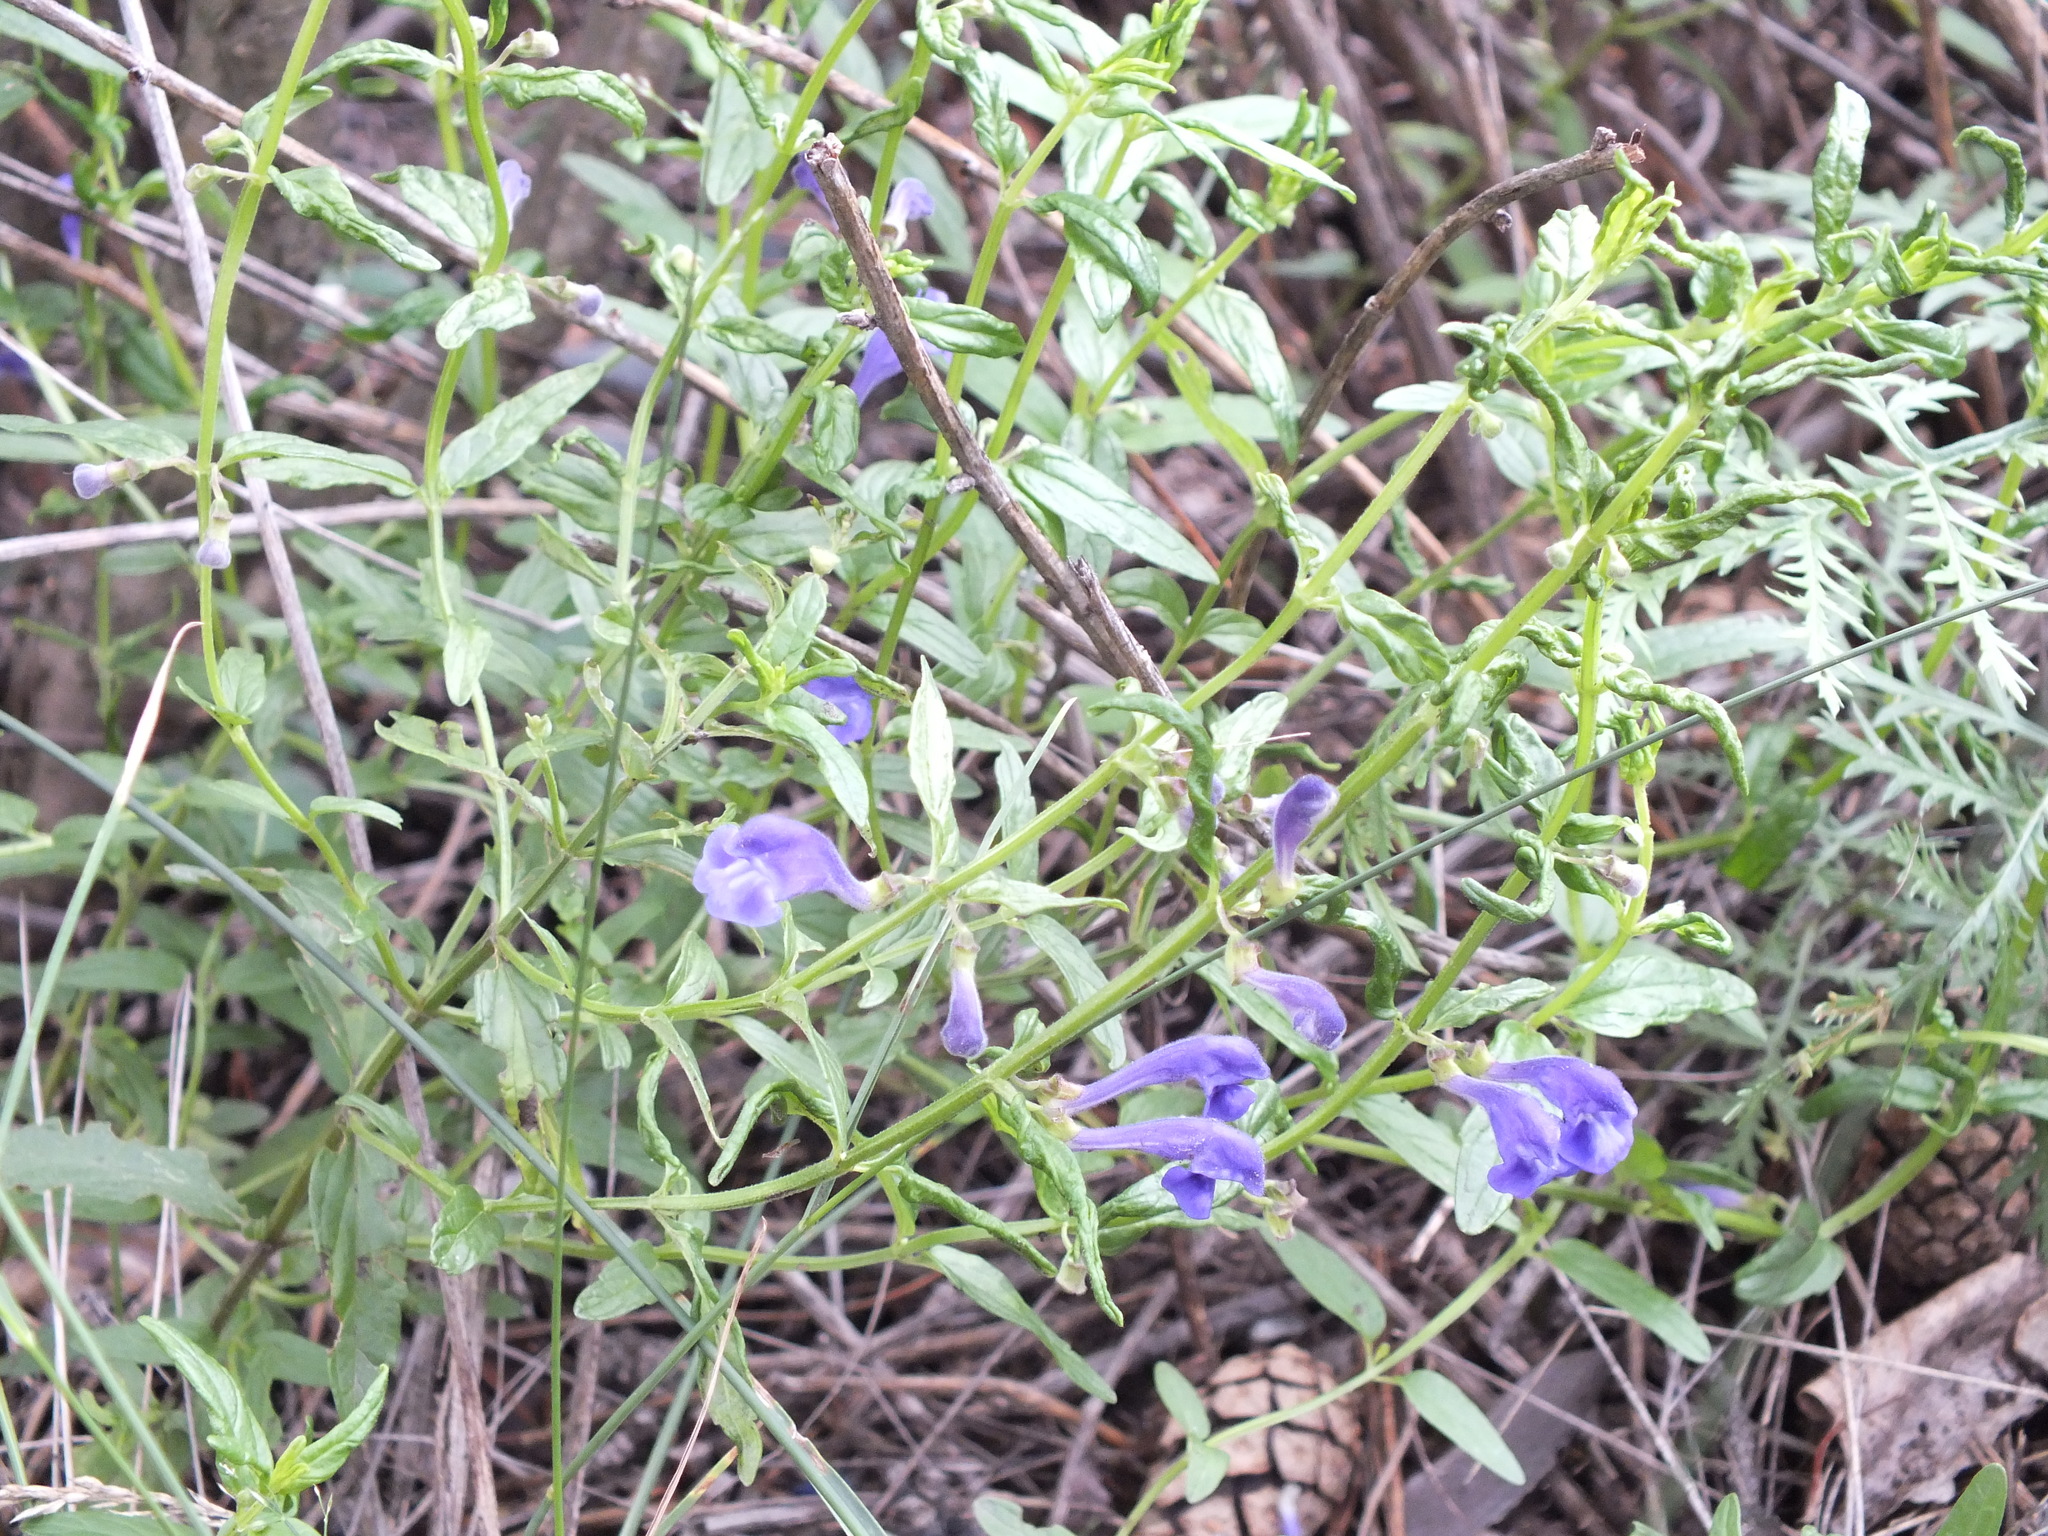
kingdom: Plantae
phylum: Tracheophyta
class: Magnoliopsida
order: Lamiales
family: Lamiaceae
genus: Scutellaria
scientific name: Scutellaria scordiifolia
